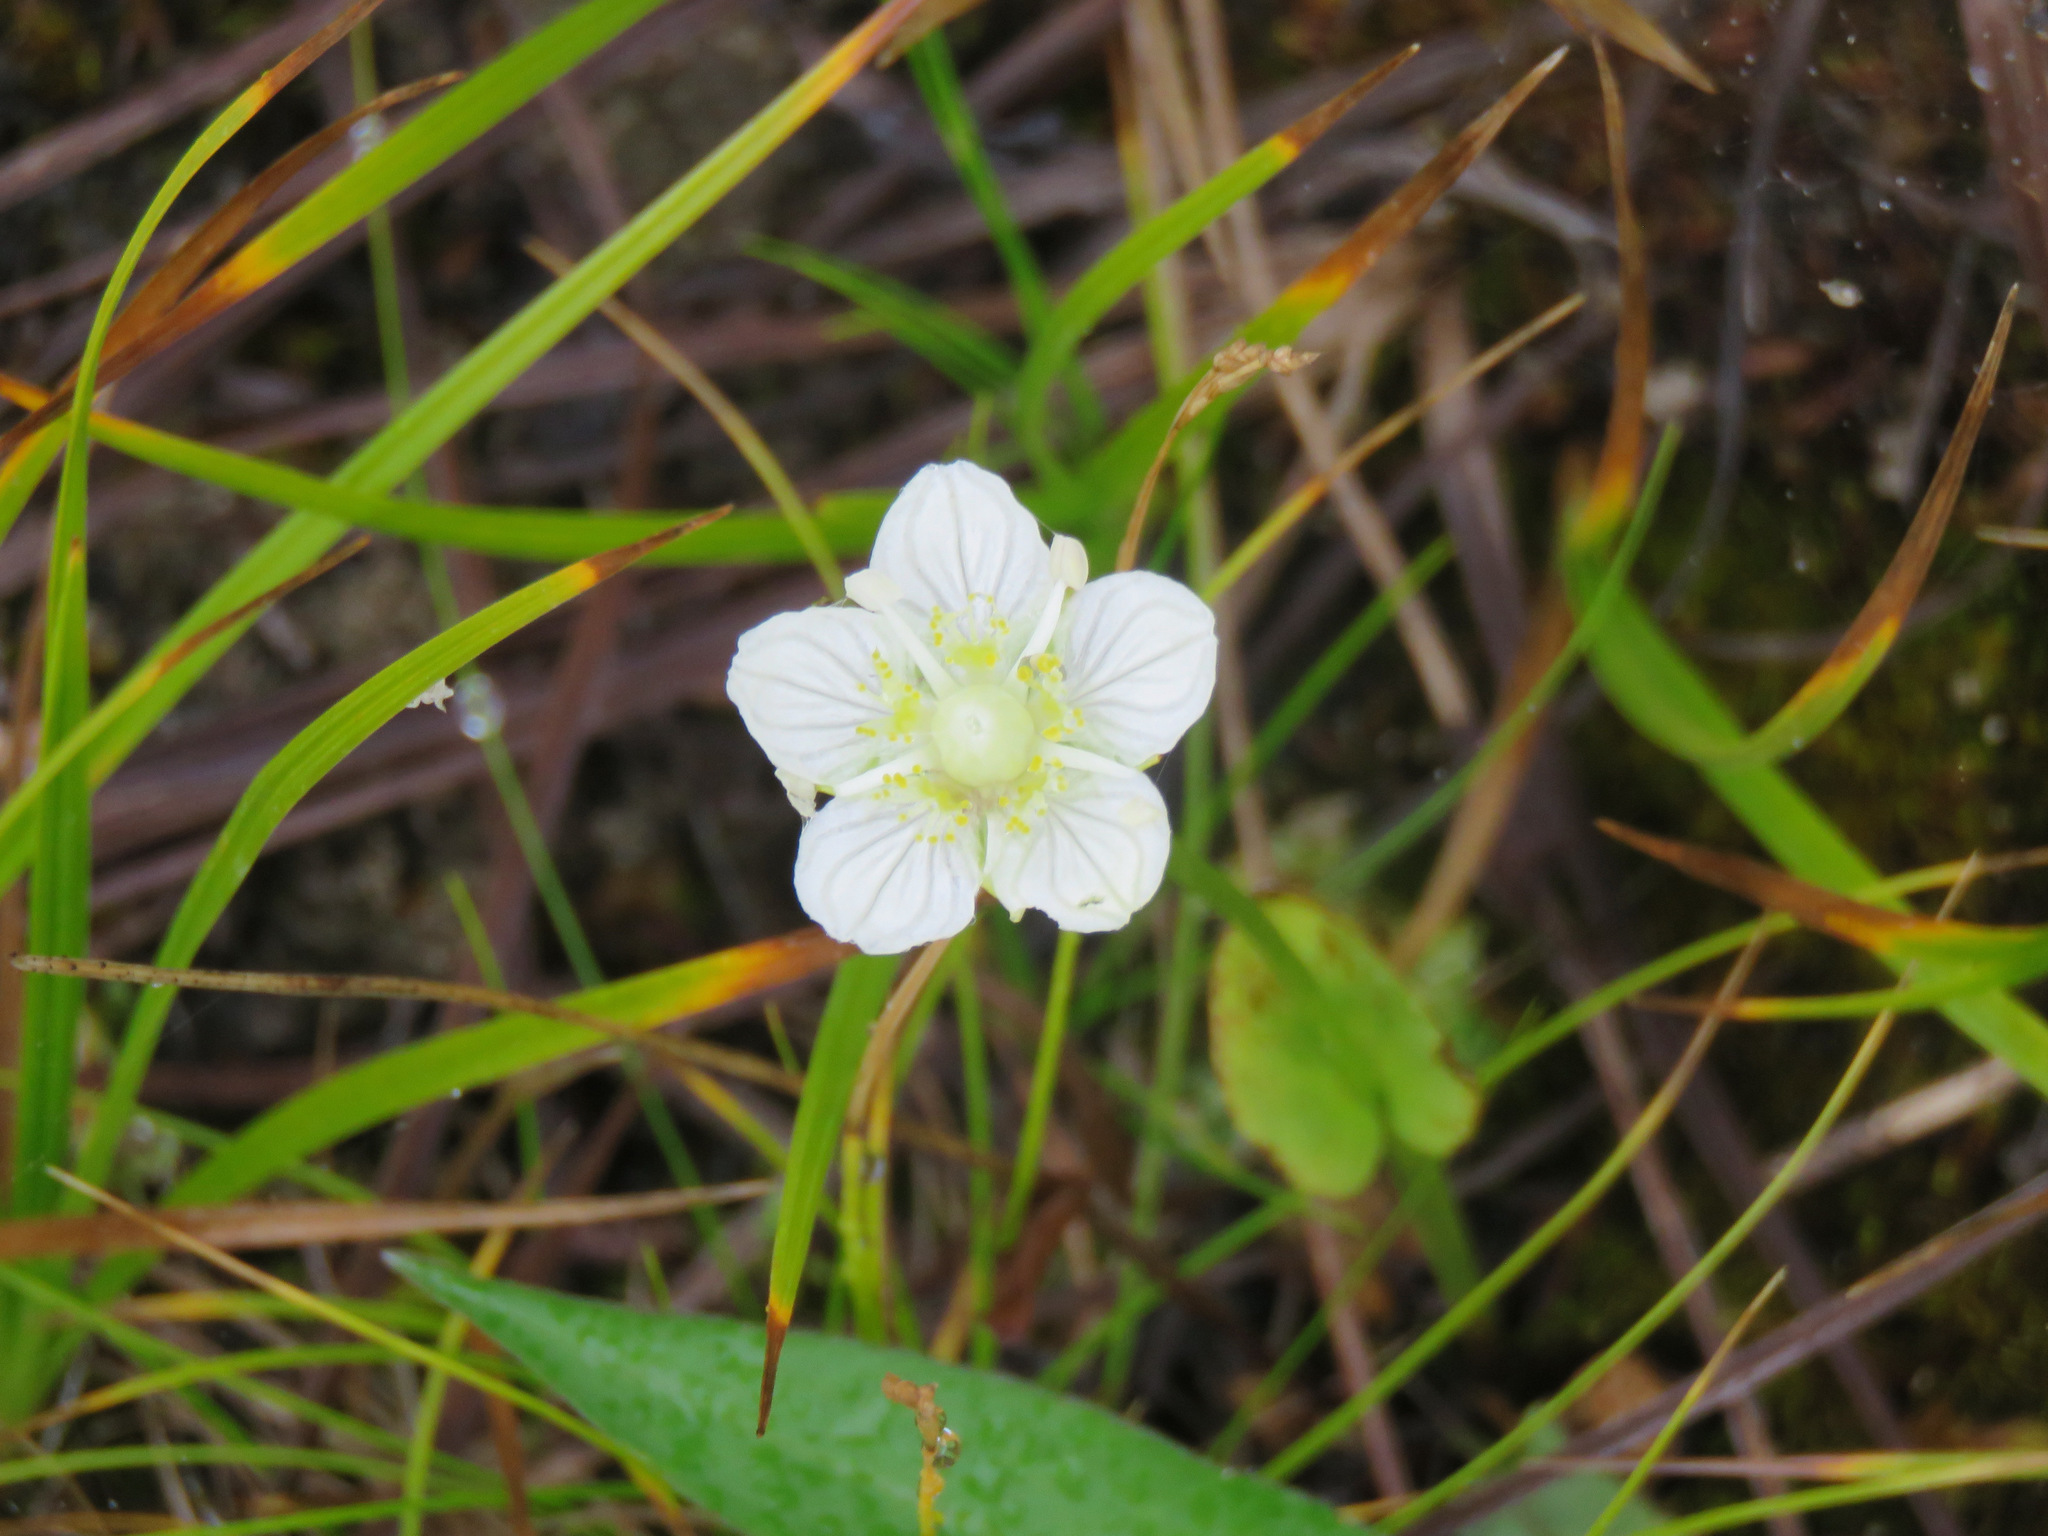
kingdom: Plantae
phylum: Tracheophyta
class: Magnoliopsida
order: Celastrales
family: Parnassiaceae
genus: Parnassia
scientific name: Parnassia palustris
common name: Grass-of-parnassus
